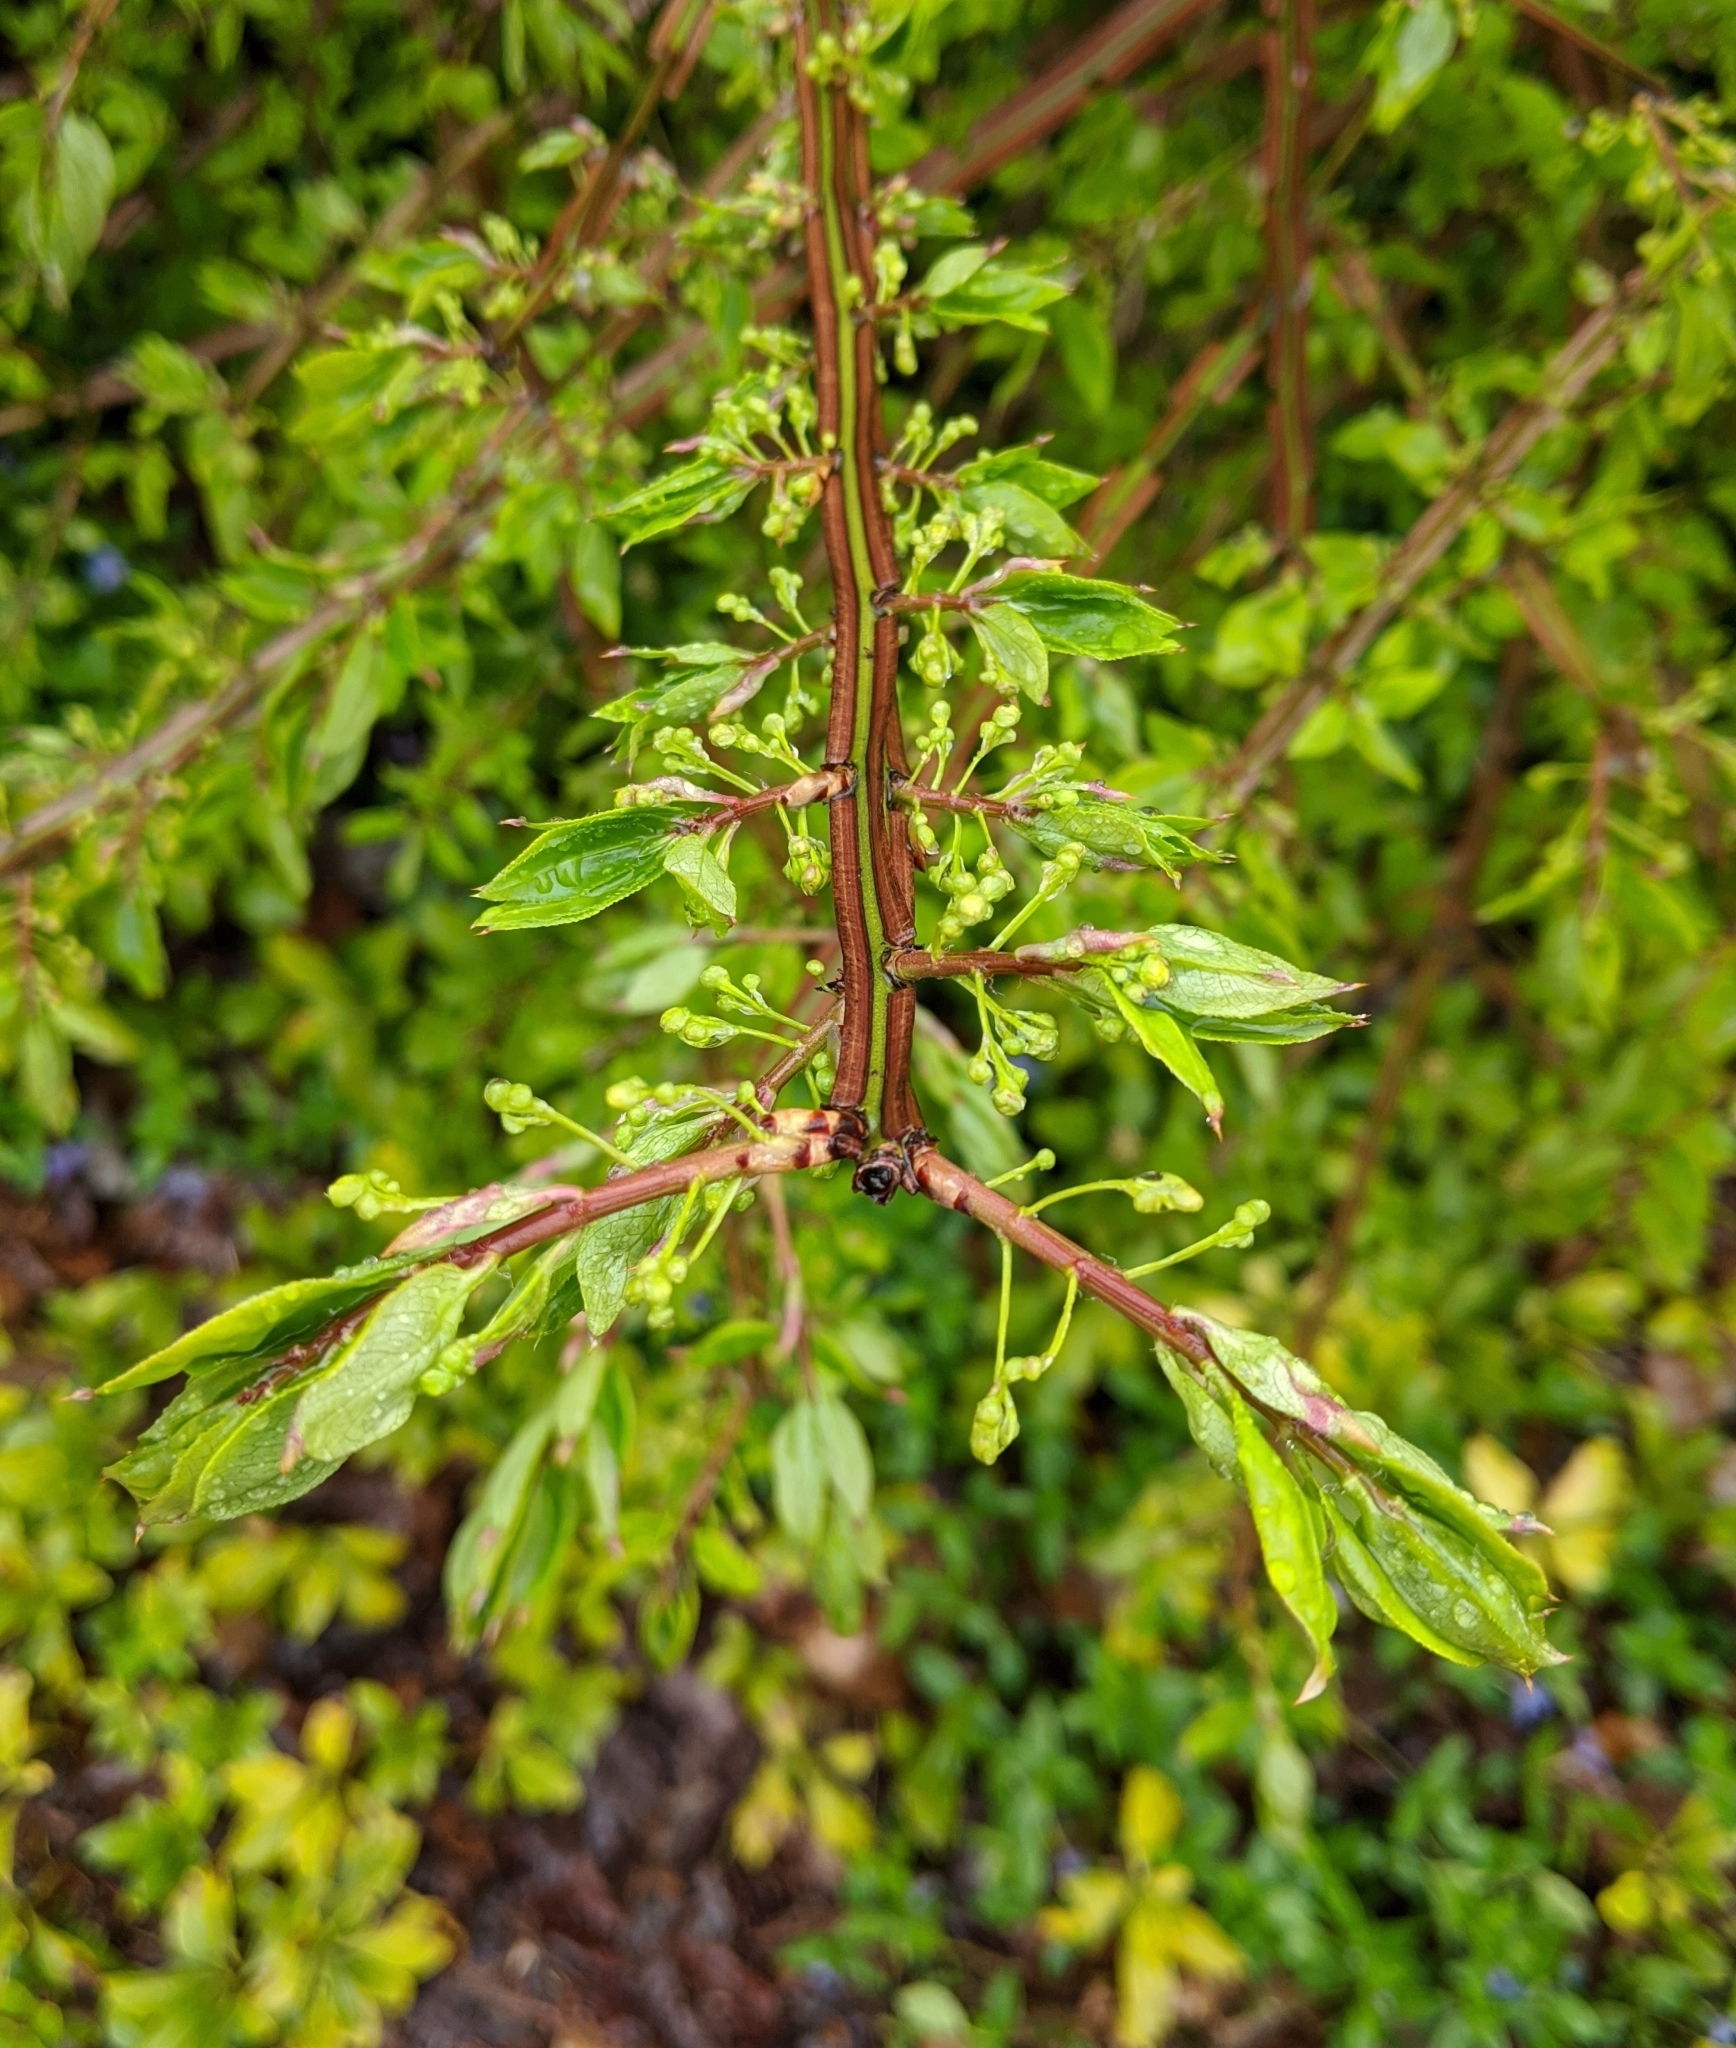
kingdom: Plantae
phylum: Tracheophyta
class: Magnoliopsida
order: Celastrales
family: Celastraceae
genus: Euonymus
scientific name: Euonymus alatus
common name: Winged euonymus
